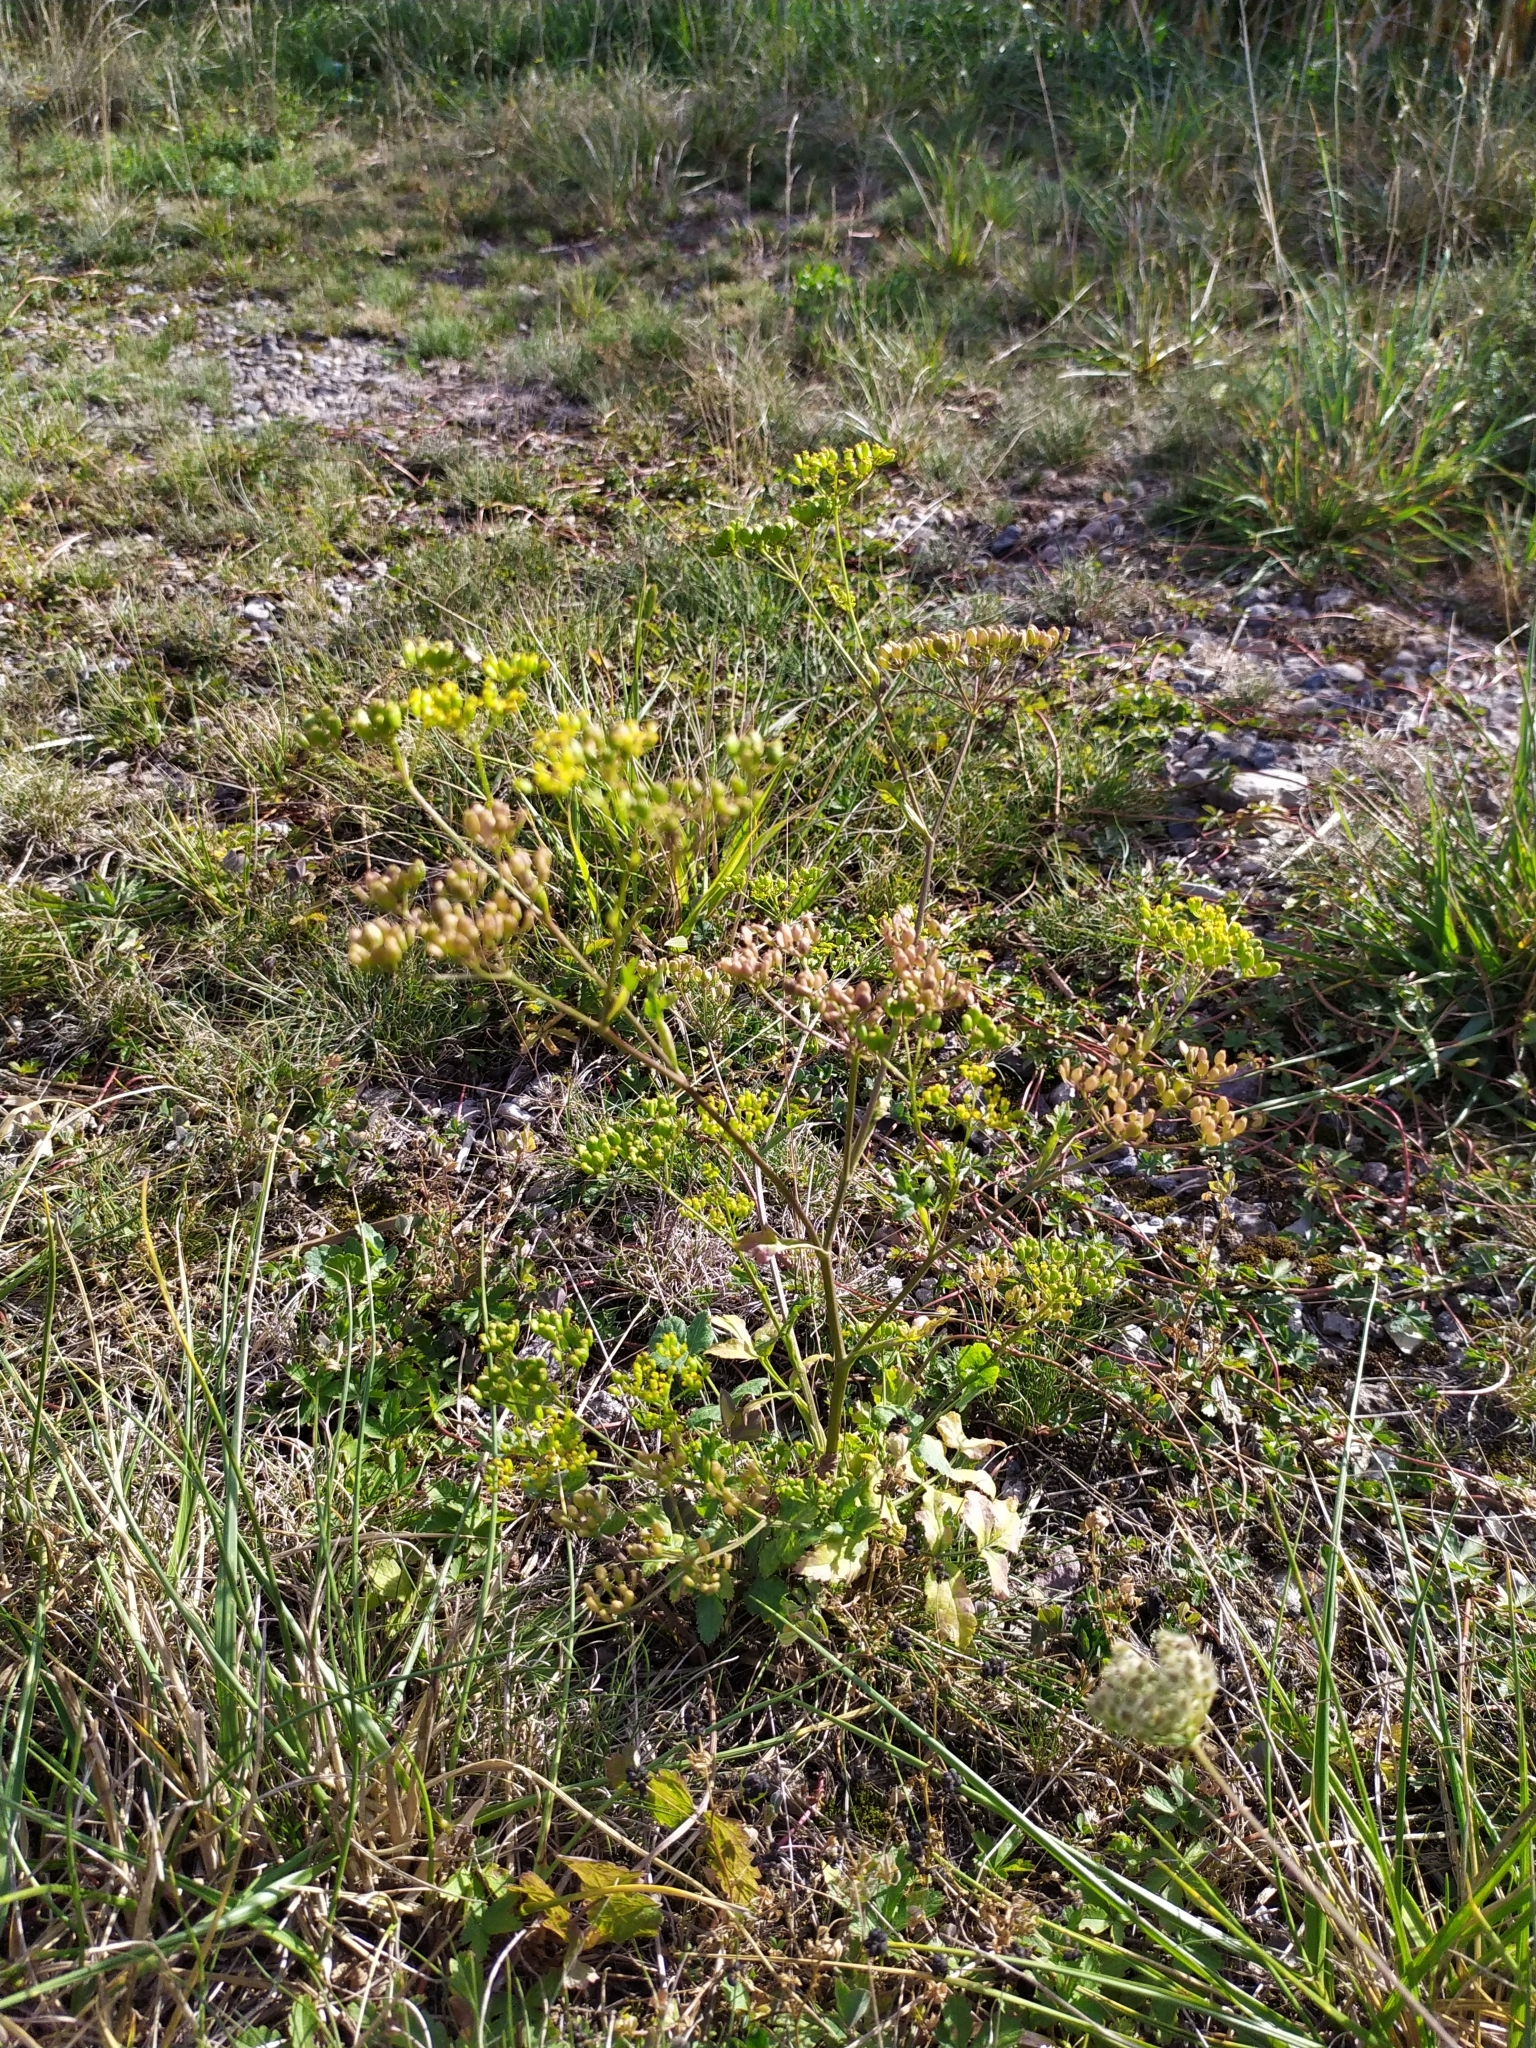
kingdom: Plantae
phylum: Tracheophyta
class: Magnoliopsida
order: Apiales
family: Apiaceae
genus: Pastinaca
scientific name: Pastinaca sativa
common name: Wild parsnip
